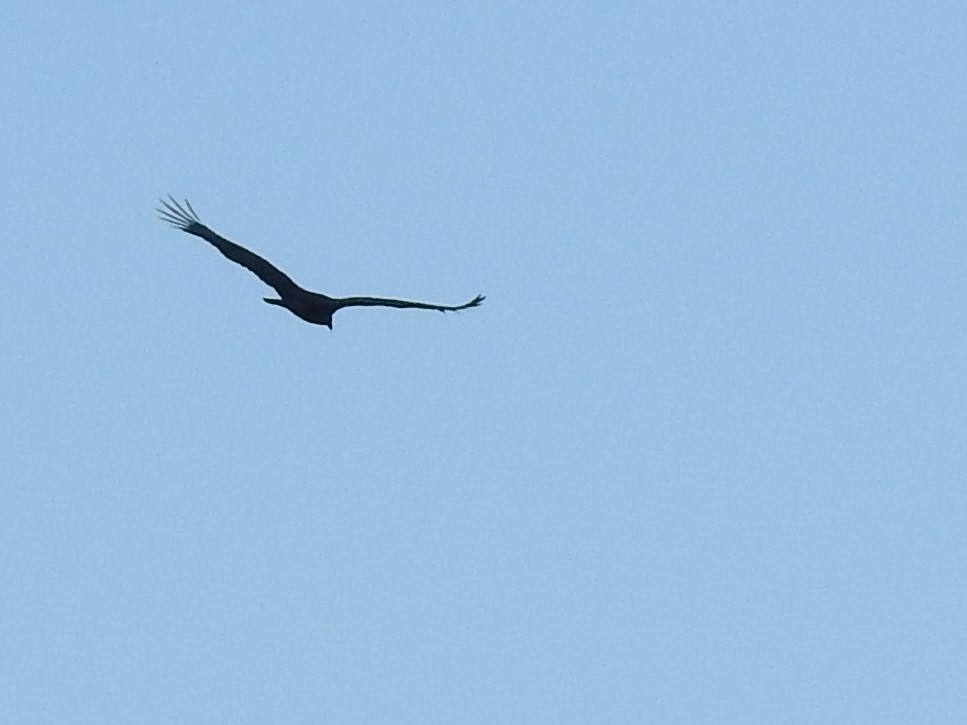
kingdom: Animalia
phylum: Chordata
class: Aves
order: Accipitriformes
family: Cathartidae
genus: Cathartes
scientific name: Cathartes aura
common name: Turkey vulture
